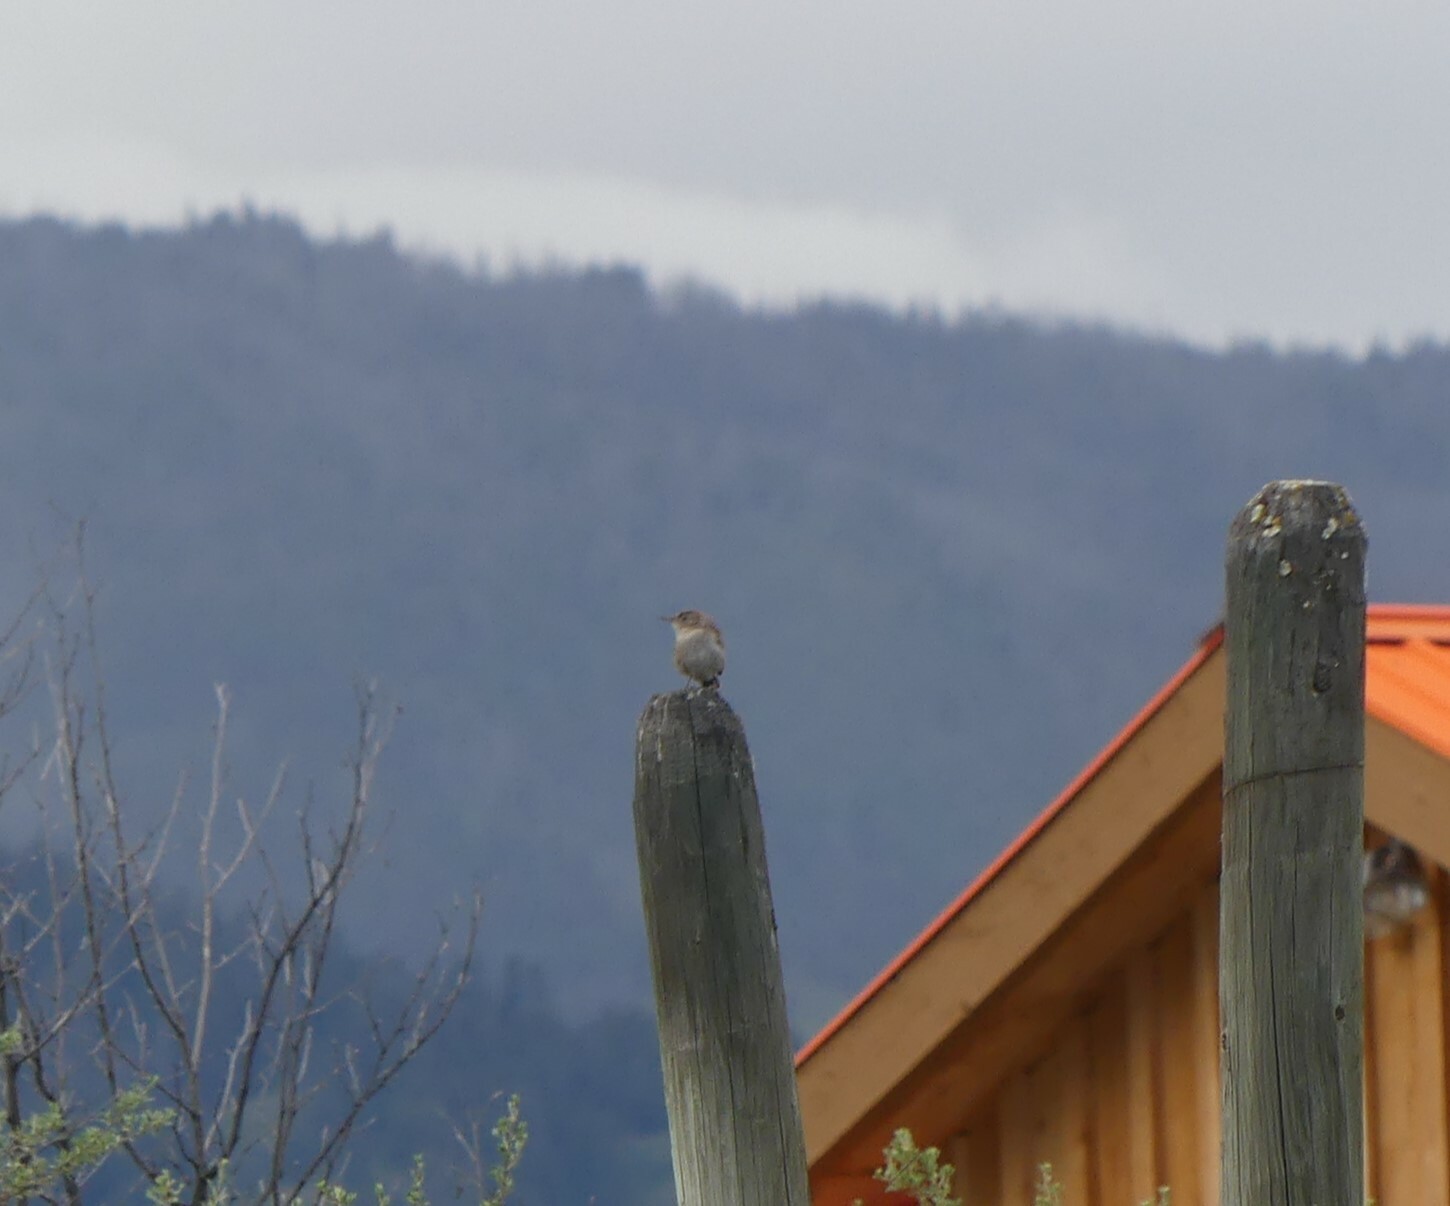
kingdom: Animalia
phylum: Chordata
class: Aves
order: Passeriformes
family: Troglodytidae
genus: Troglodytes
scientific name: Troglodytes aedon
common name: House wren
